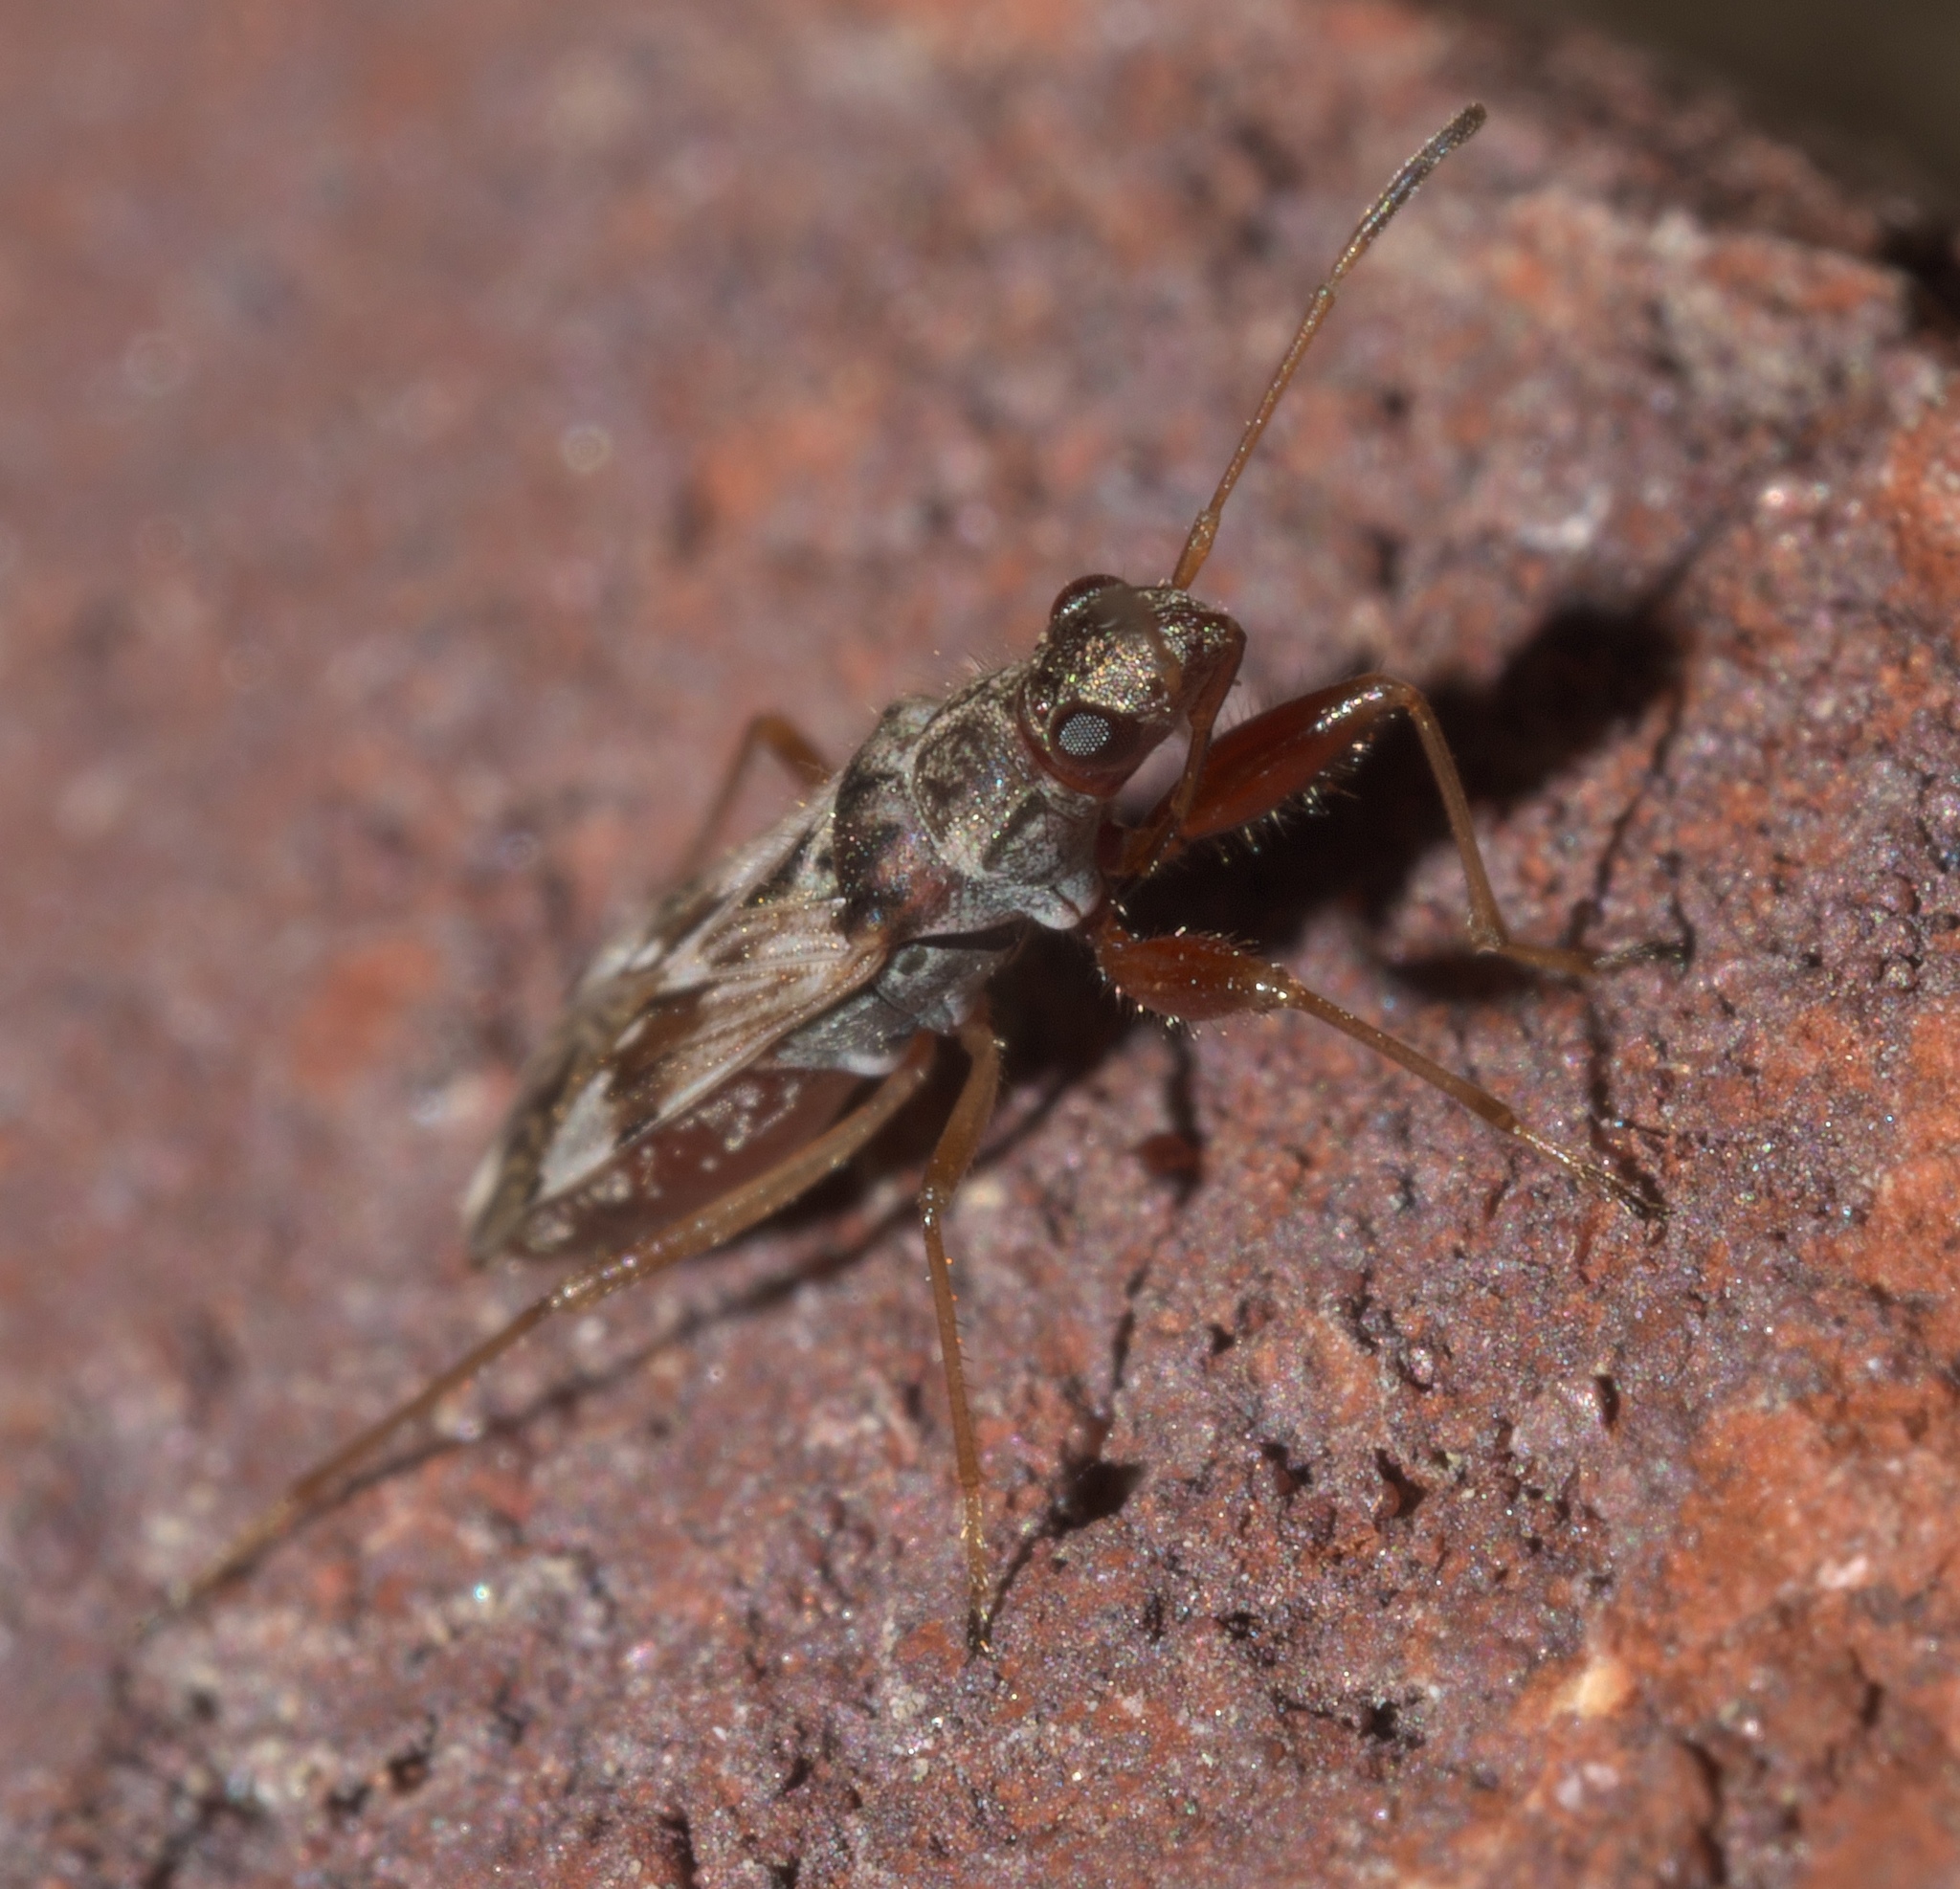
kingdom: Animalia
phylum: Arthropoda
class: Insecta
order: Hemiptera
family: Rhyparochromidae
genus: Neopamera
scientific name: Neopamera bilobata
